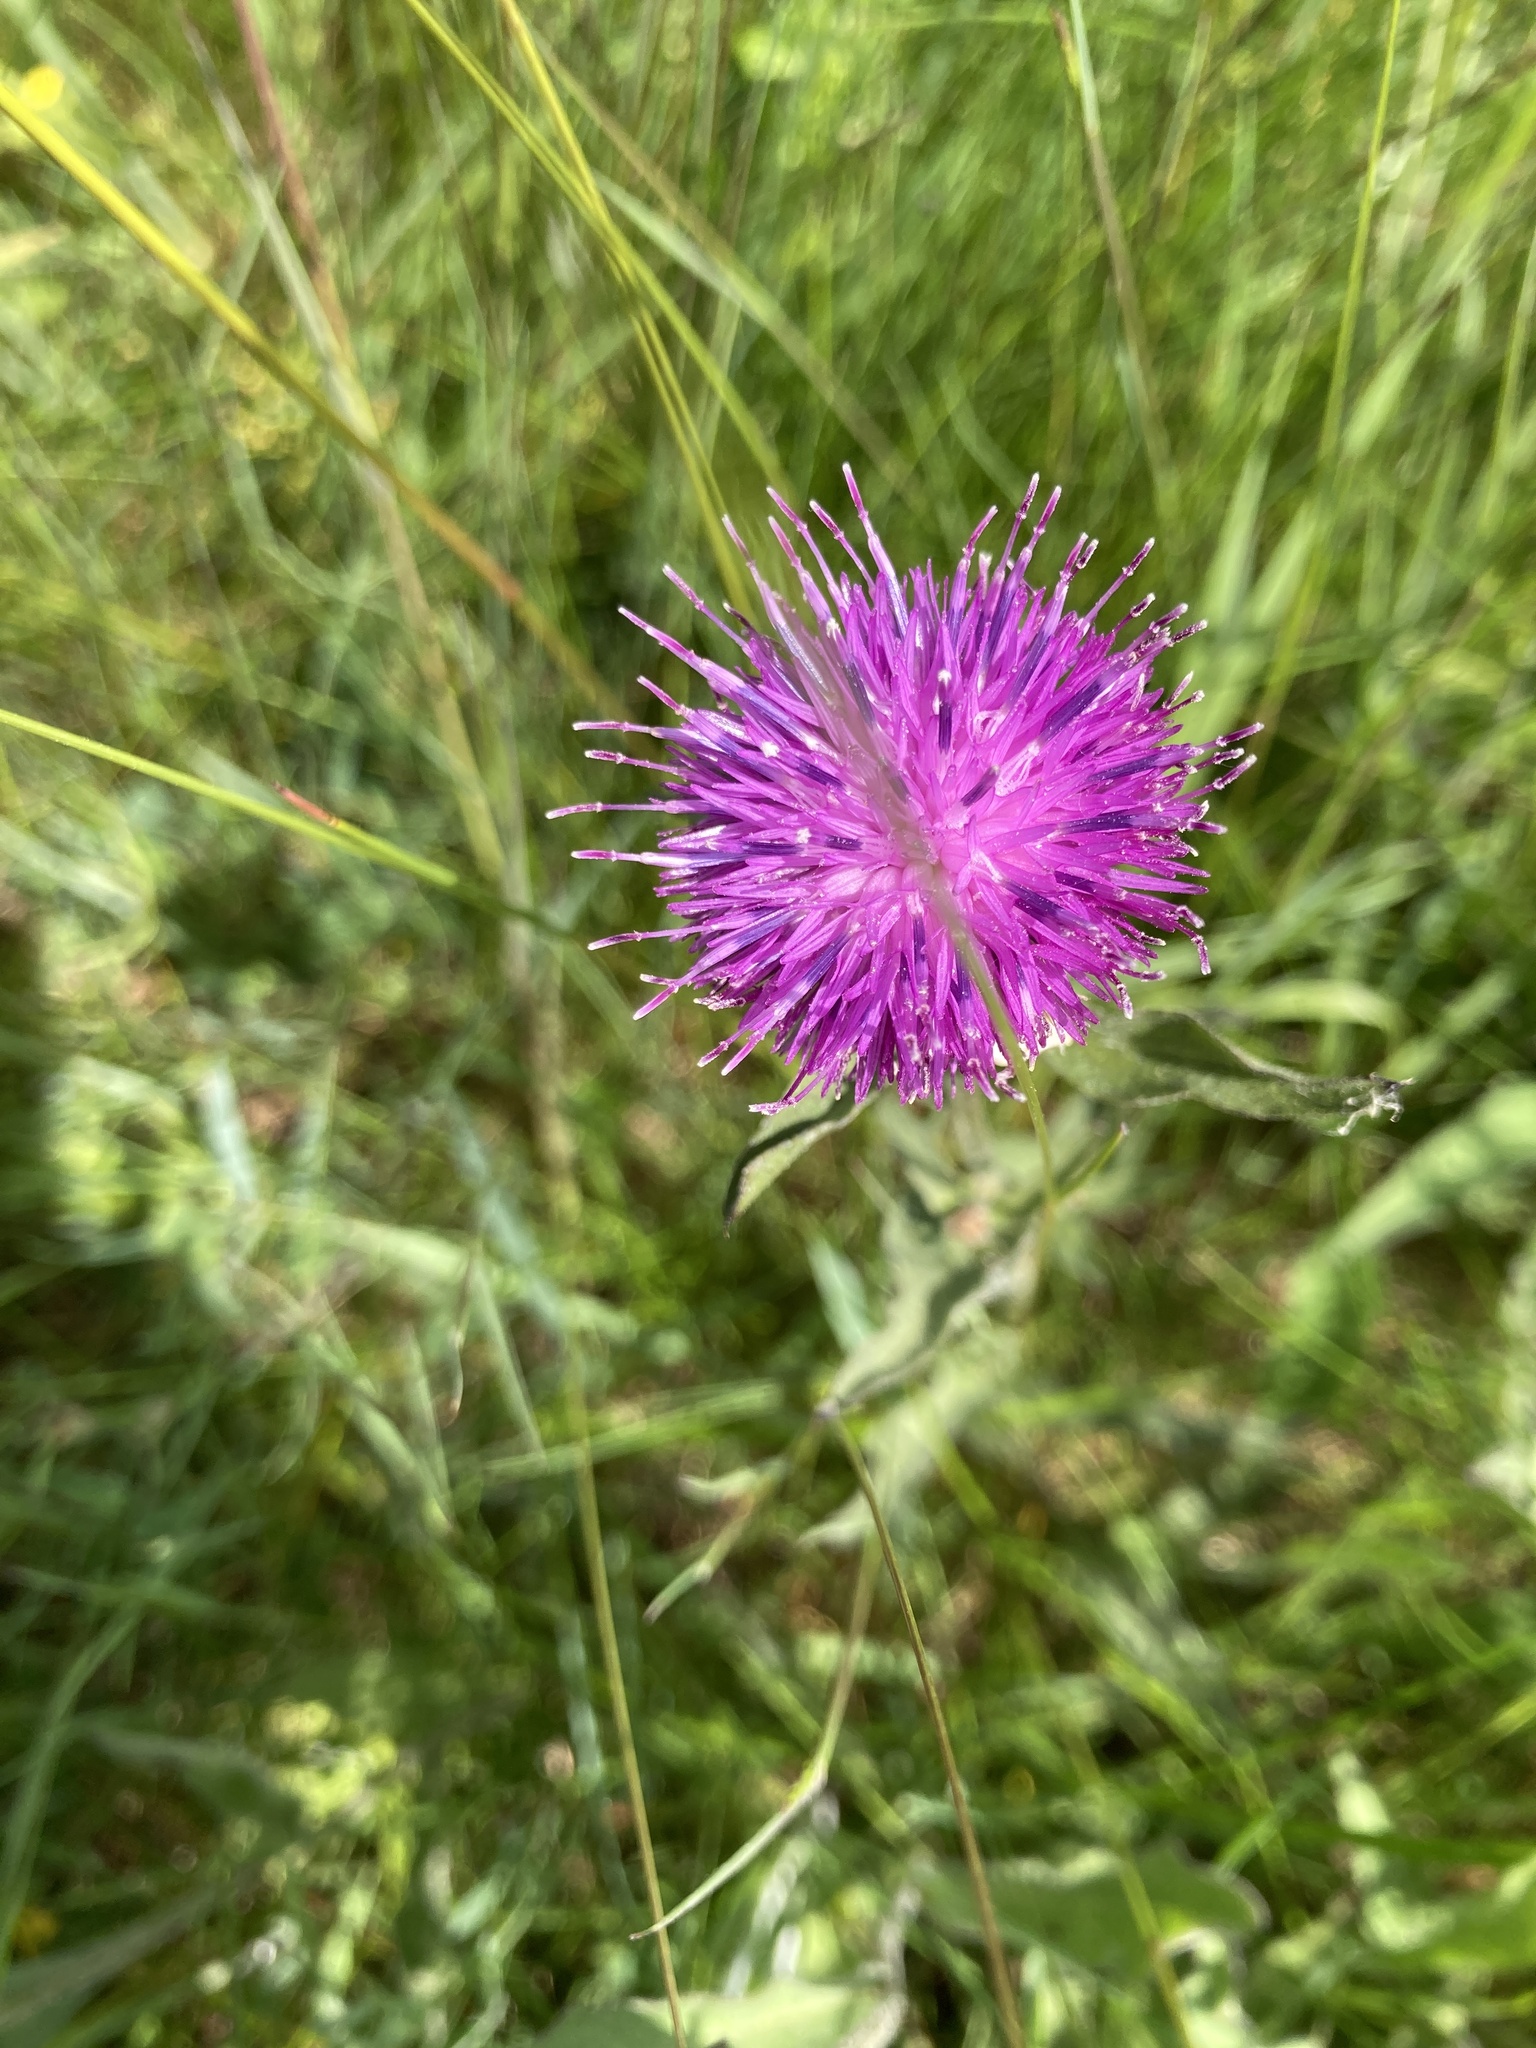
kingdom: Plantae
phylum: Tracheophyta
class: Magnoliopsida
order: Asterales
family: Asteraceae
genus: Centaurea
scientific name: Centaurea nigra
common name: Lesser knapweed
